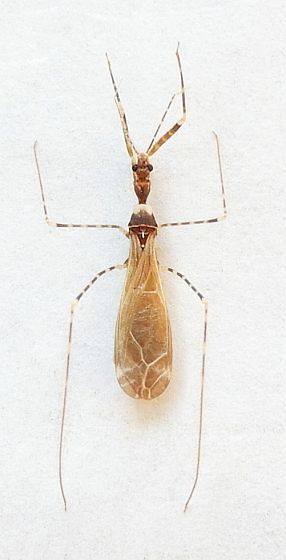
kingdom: Animalia
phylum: Arthropoda
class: Insecta
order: Hemiptera
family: Reduviidae
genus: Stenolemoides
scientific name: Stenolemoides arizonensis
